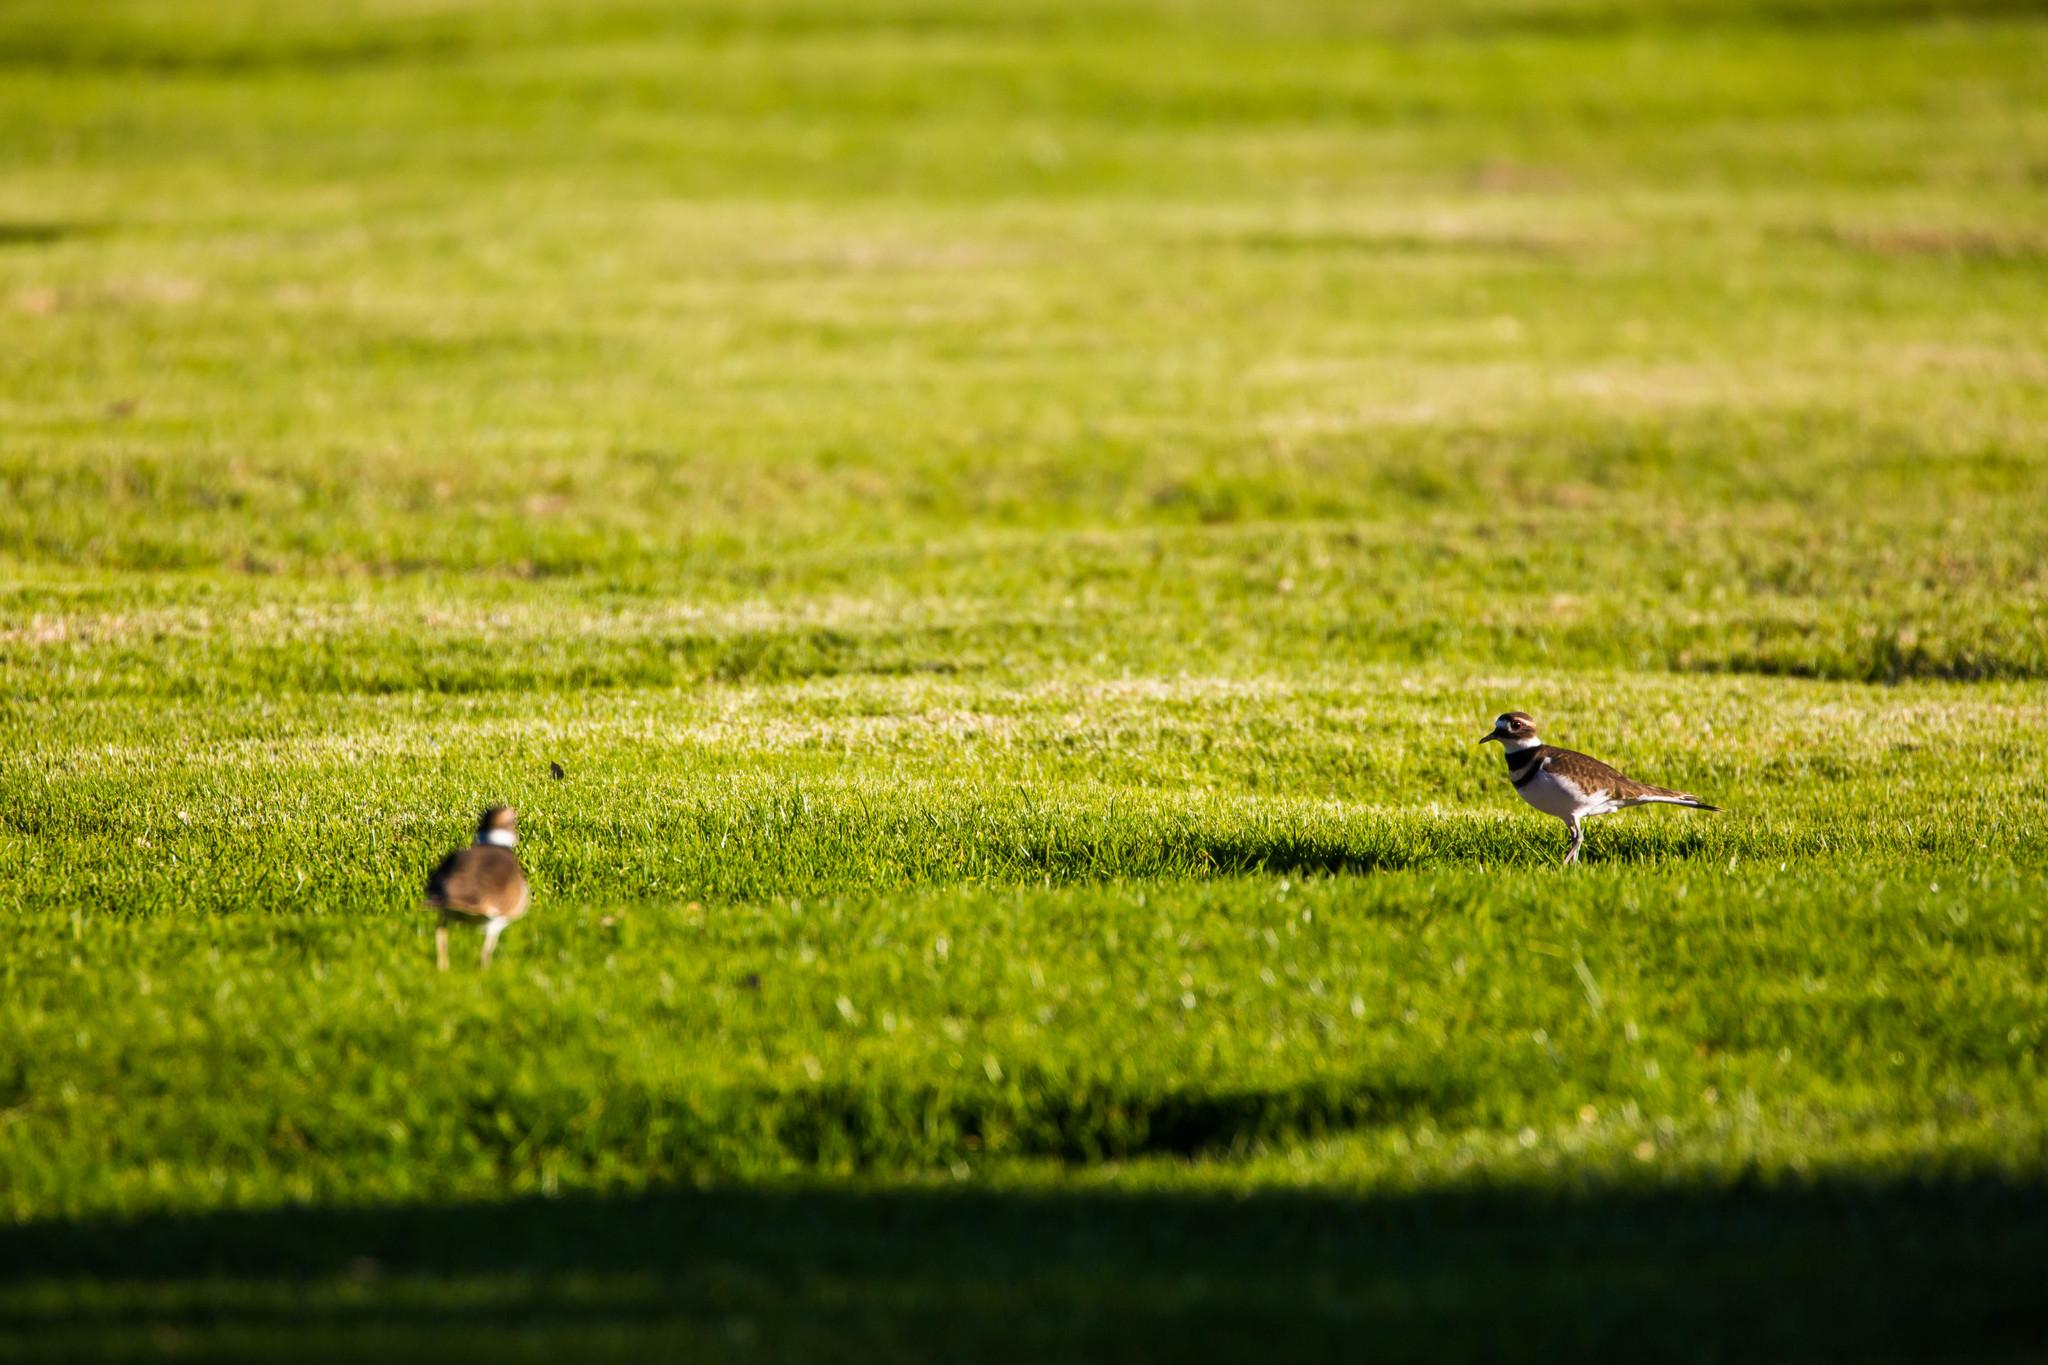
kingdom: Animalia
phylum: Chordata
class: Aves
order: Charadriiformes
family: Charadriidae
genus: Charadrius
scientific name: Charadrius vociferus
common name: Killdeer
